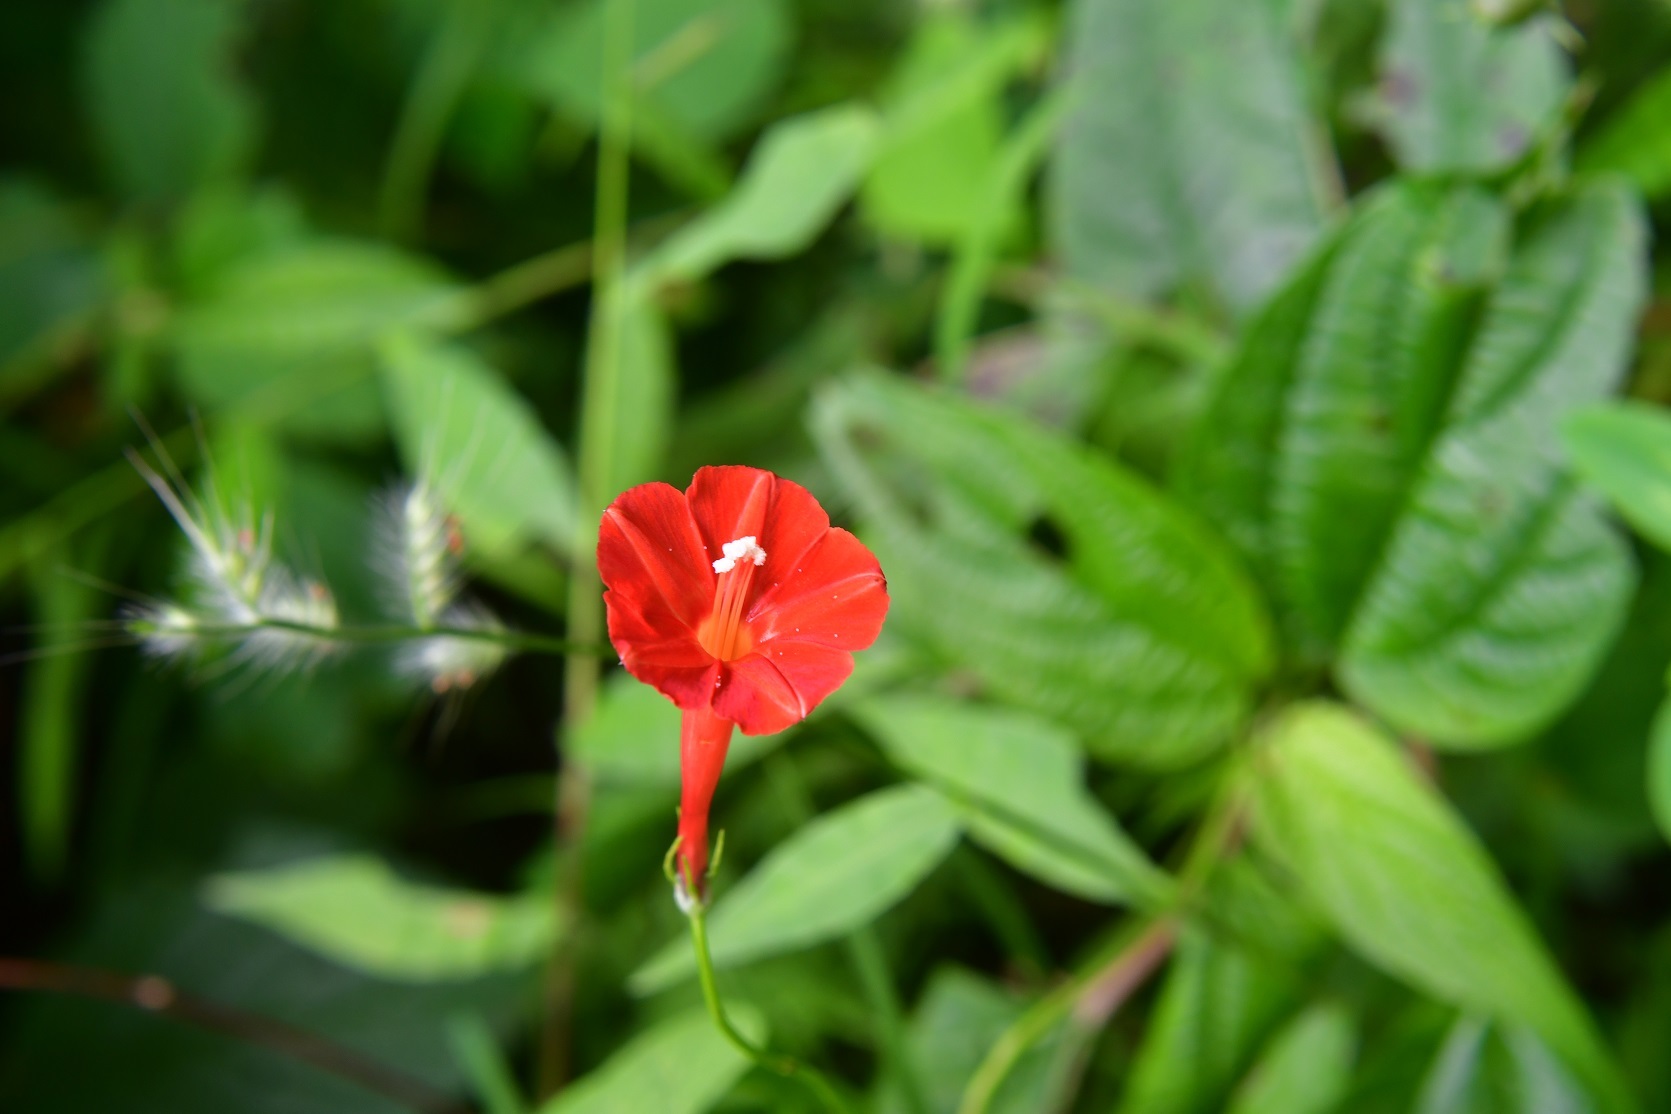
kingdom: Plantae
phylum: Tracheophyta
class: Magnoliopsida
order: Solanales
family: Convolvulaceae
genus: Ipomoea
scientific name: Ipomoea hederifolia
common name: Ivy-leaf morning-glory
